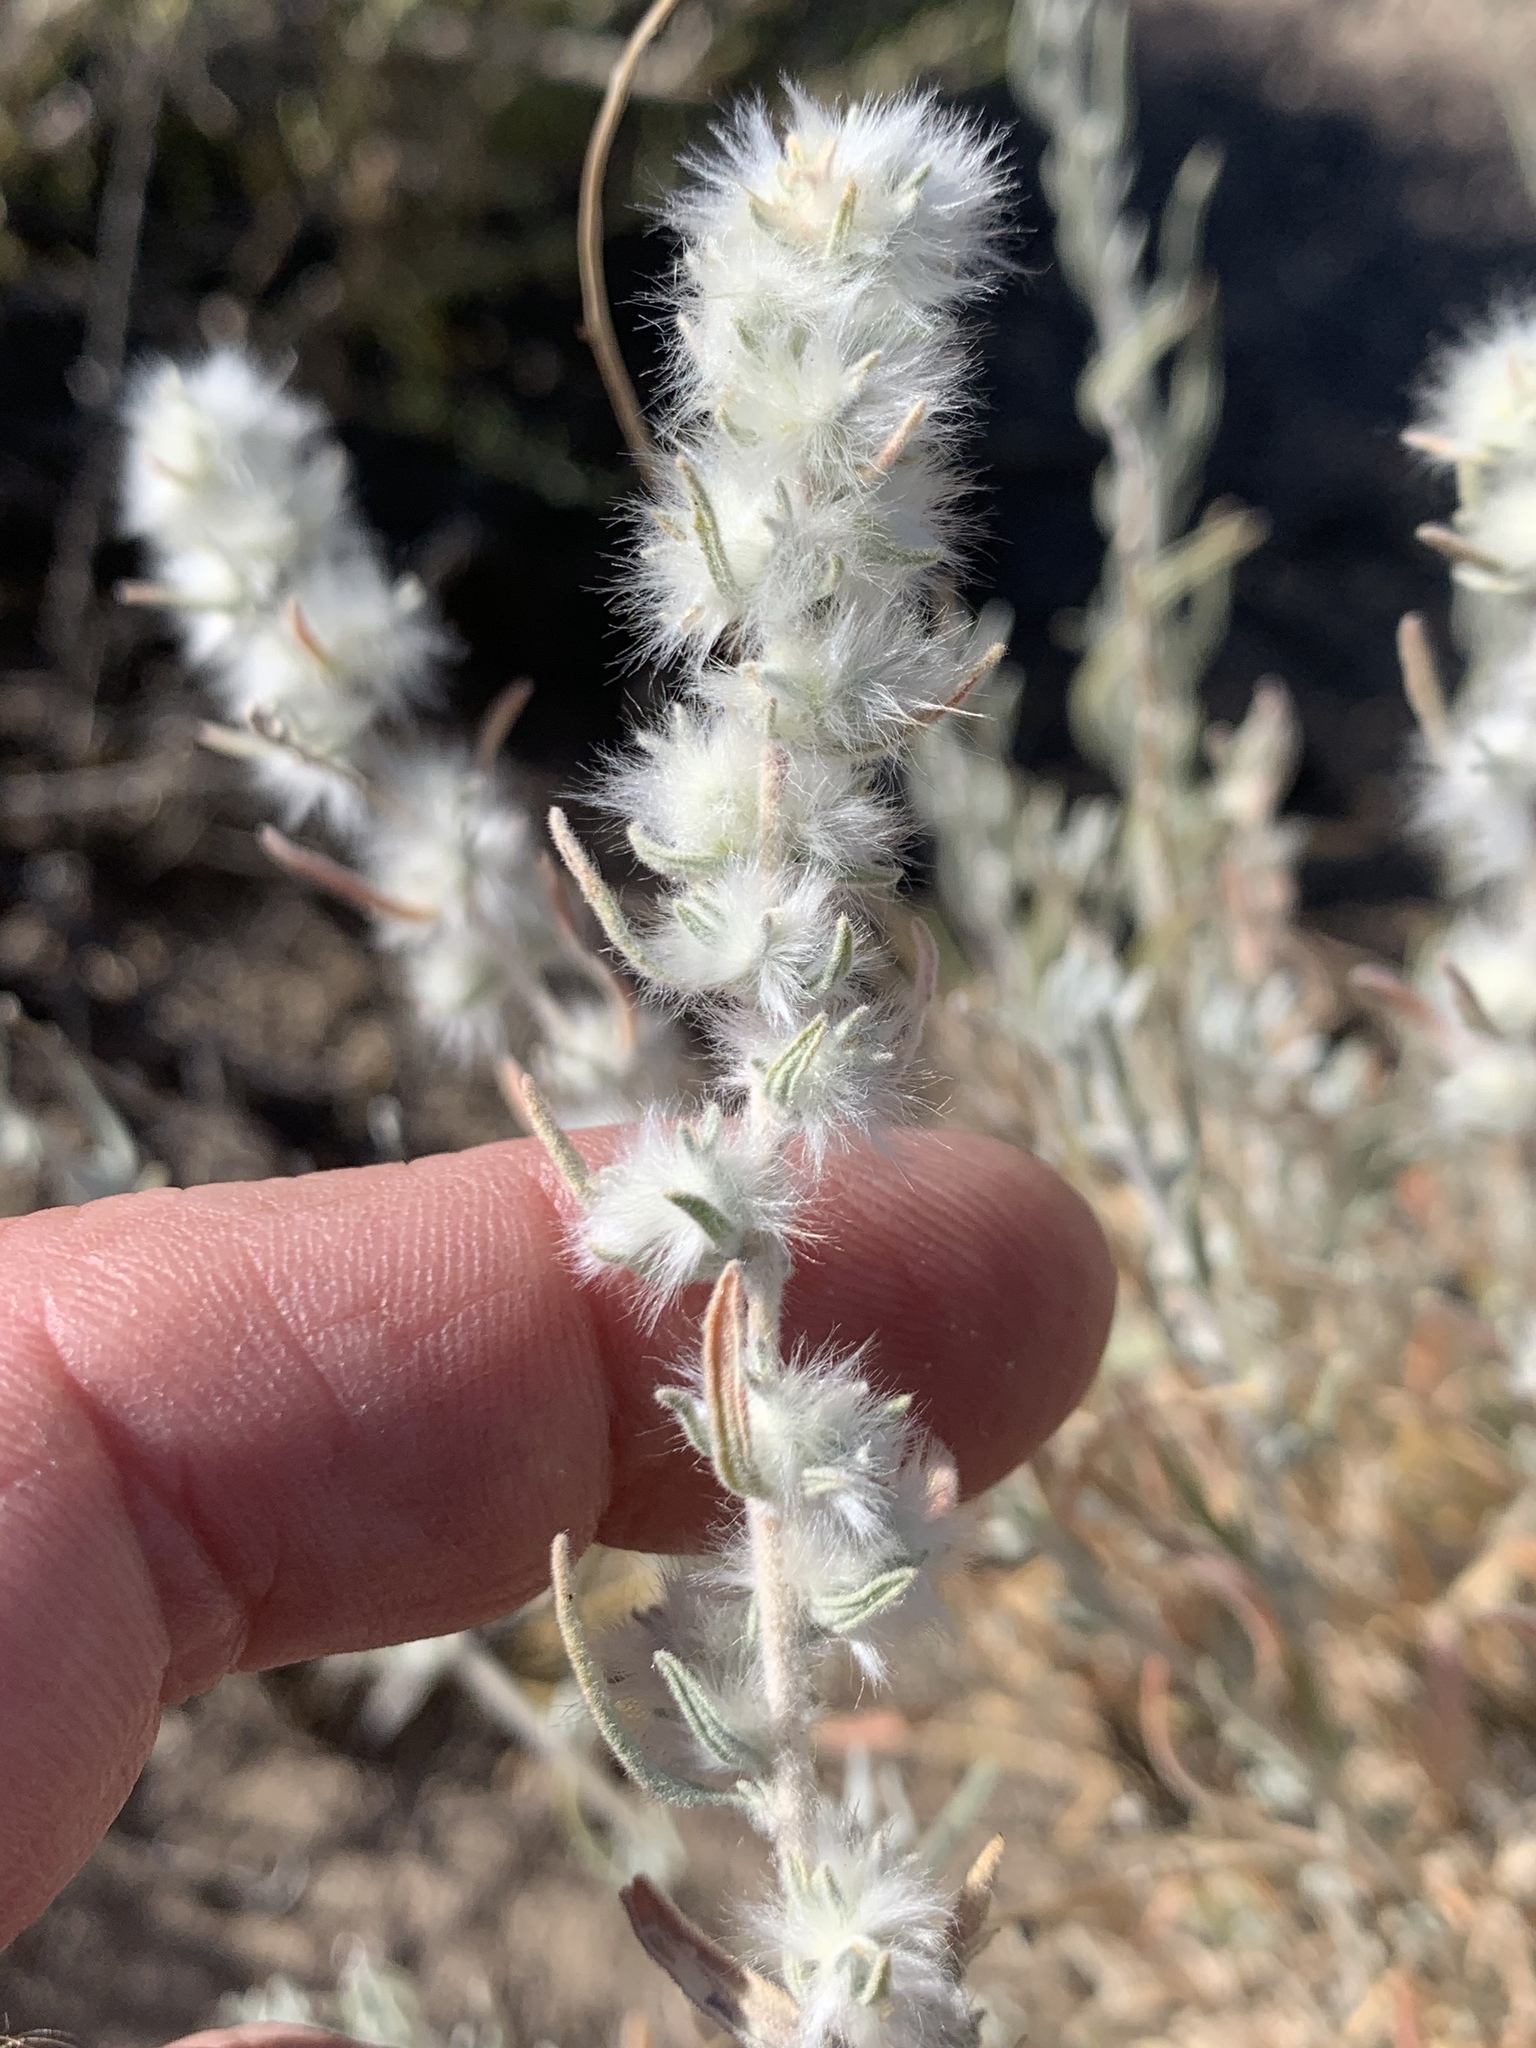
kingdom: Plantae
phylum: Tracheophyta
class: Magnoliopsida
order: Caryophyllales
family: Amaranthaceae
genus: Krascheninnikovia
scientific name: Krascheninnikovia lanata
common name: Winterfat
